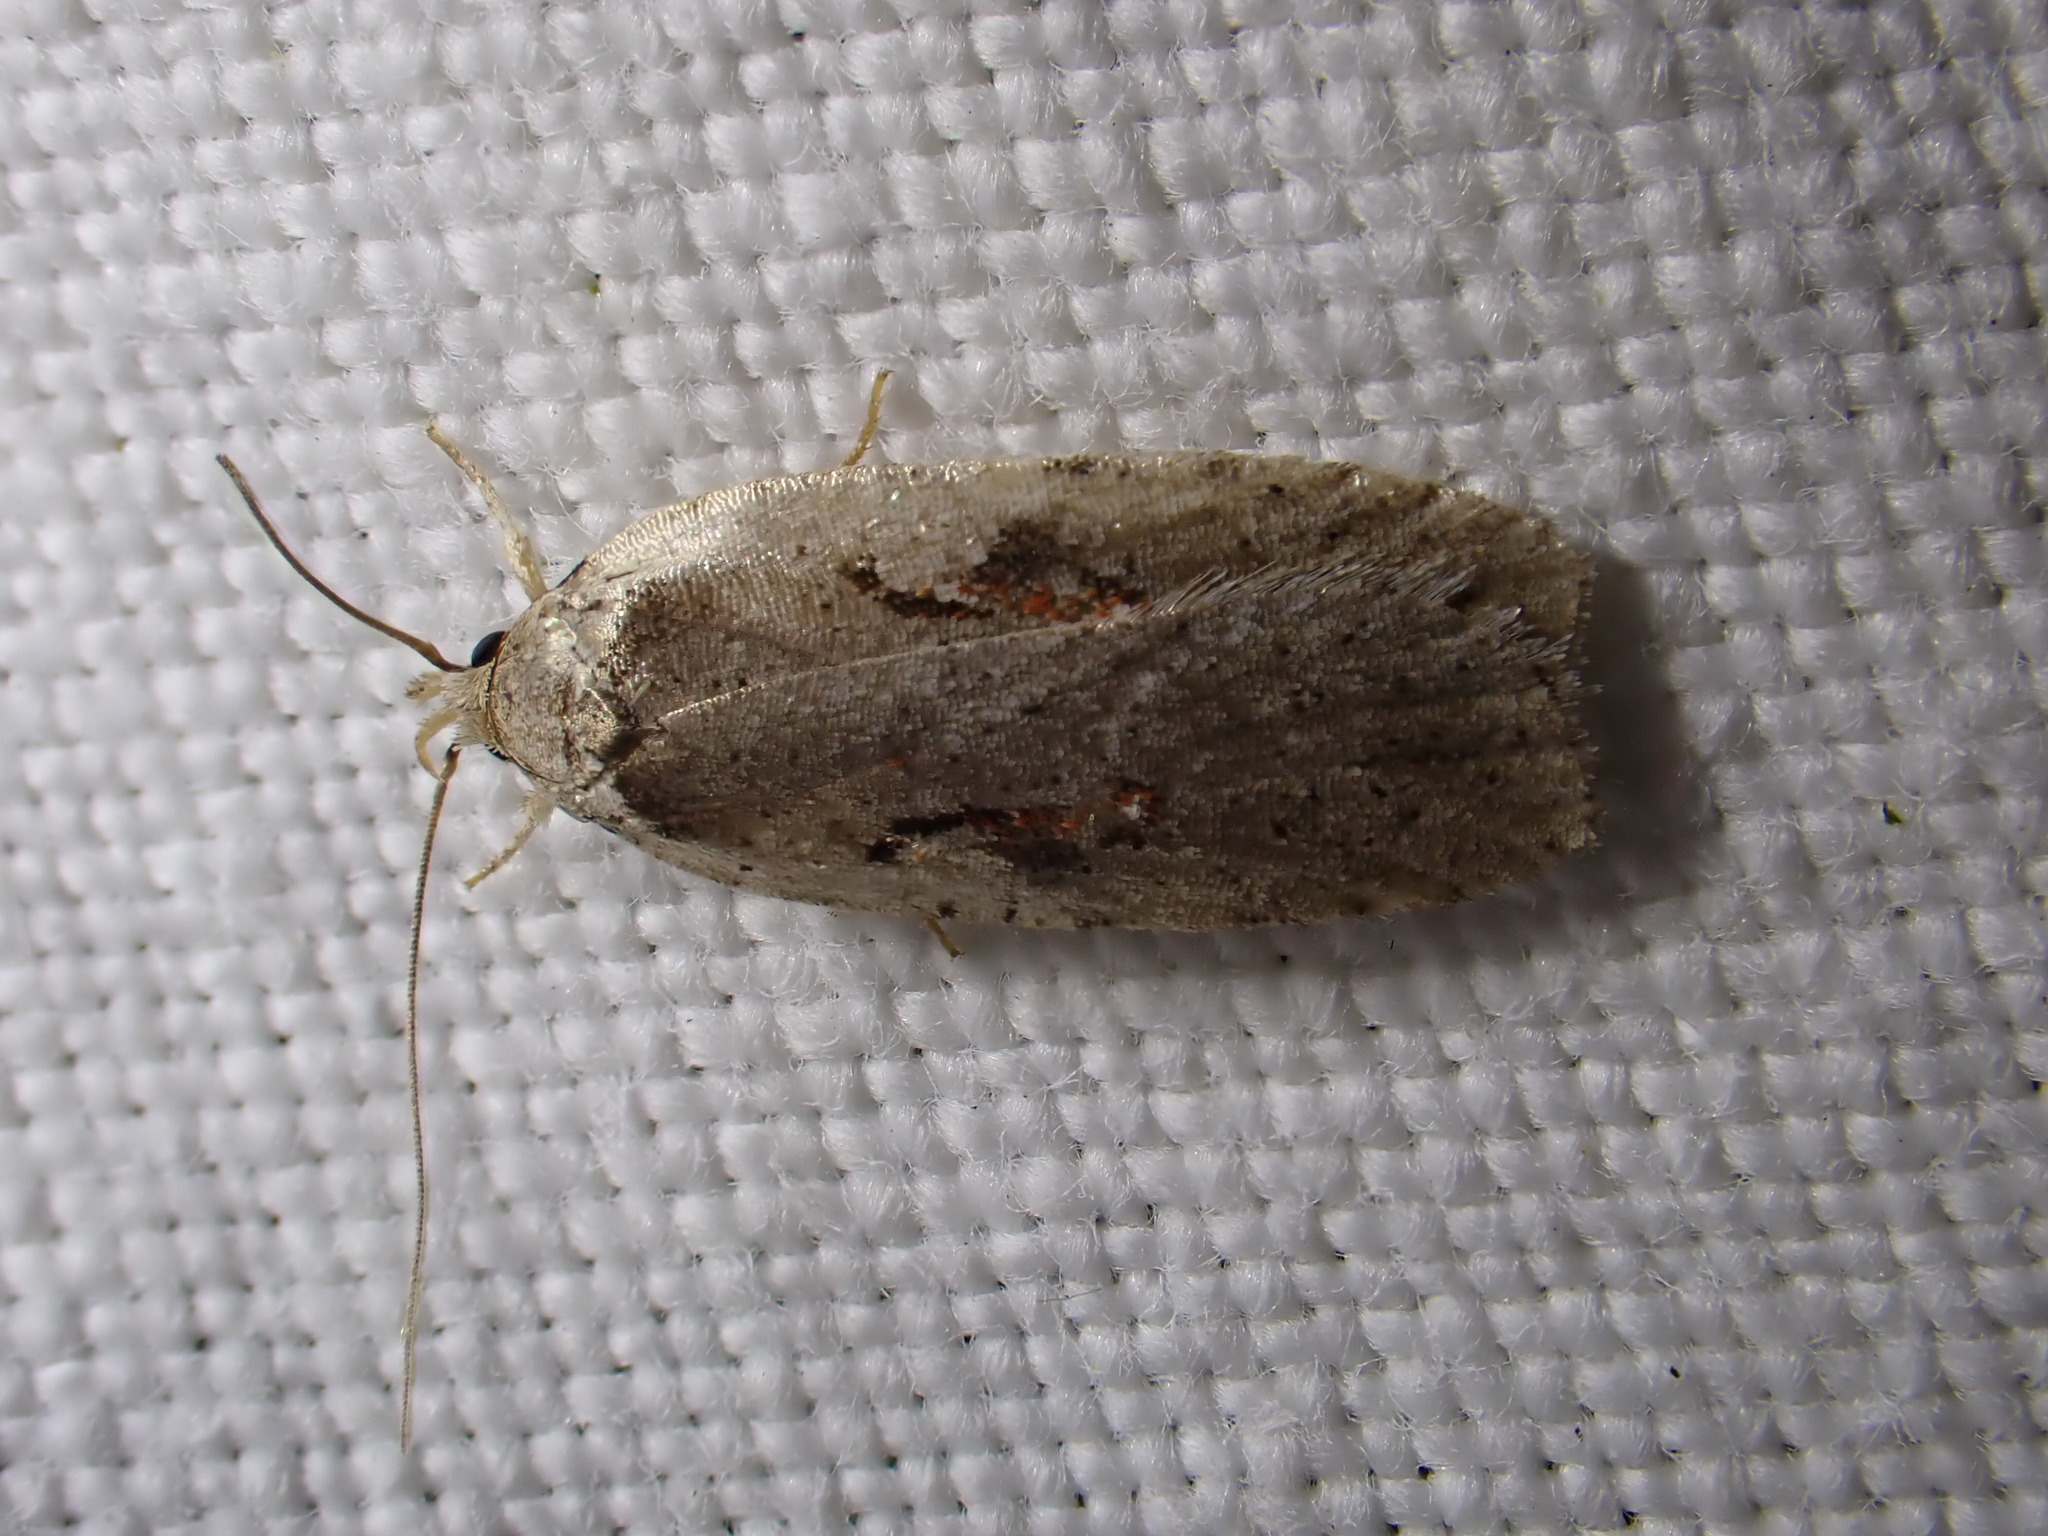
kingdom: Animalia
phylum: Arthropoda
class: Insecta
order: Lepidoptera
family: Depressariidae
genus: Agonopterix
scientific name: Agonopterix ocellana
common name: Red-letter flat-body
